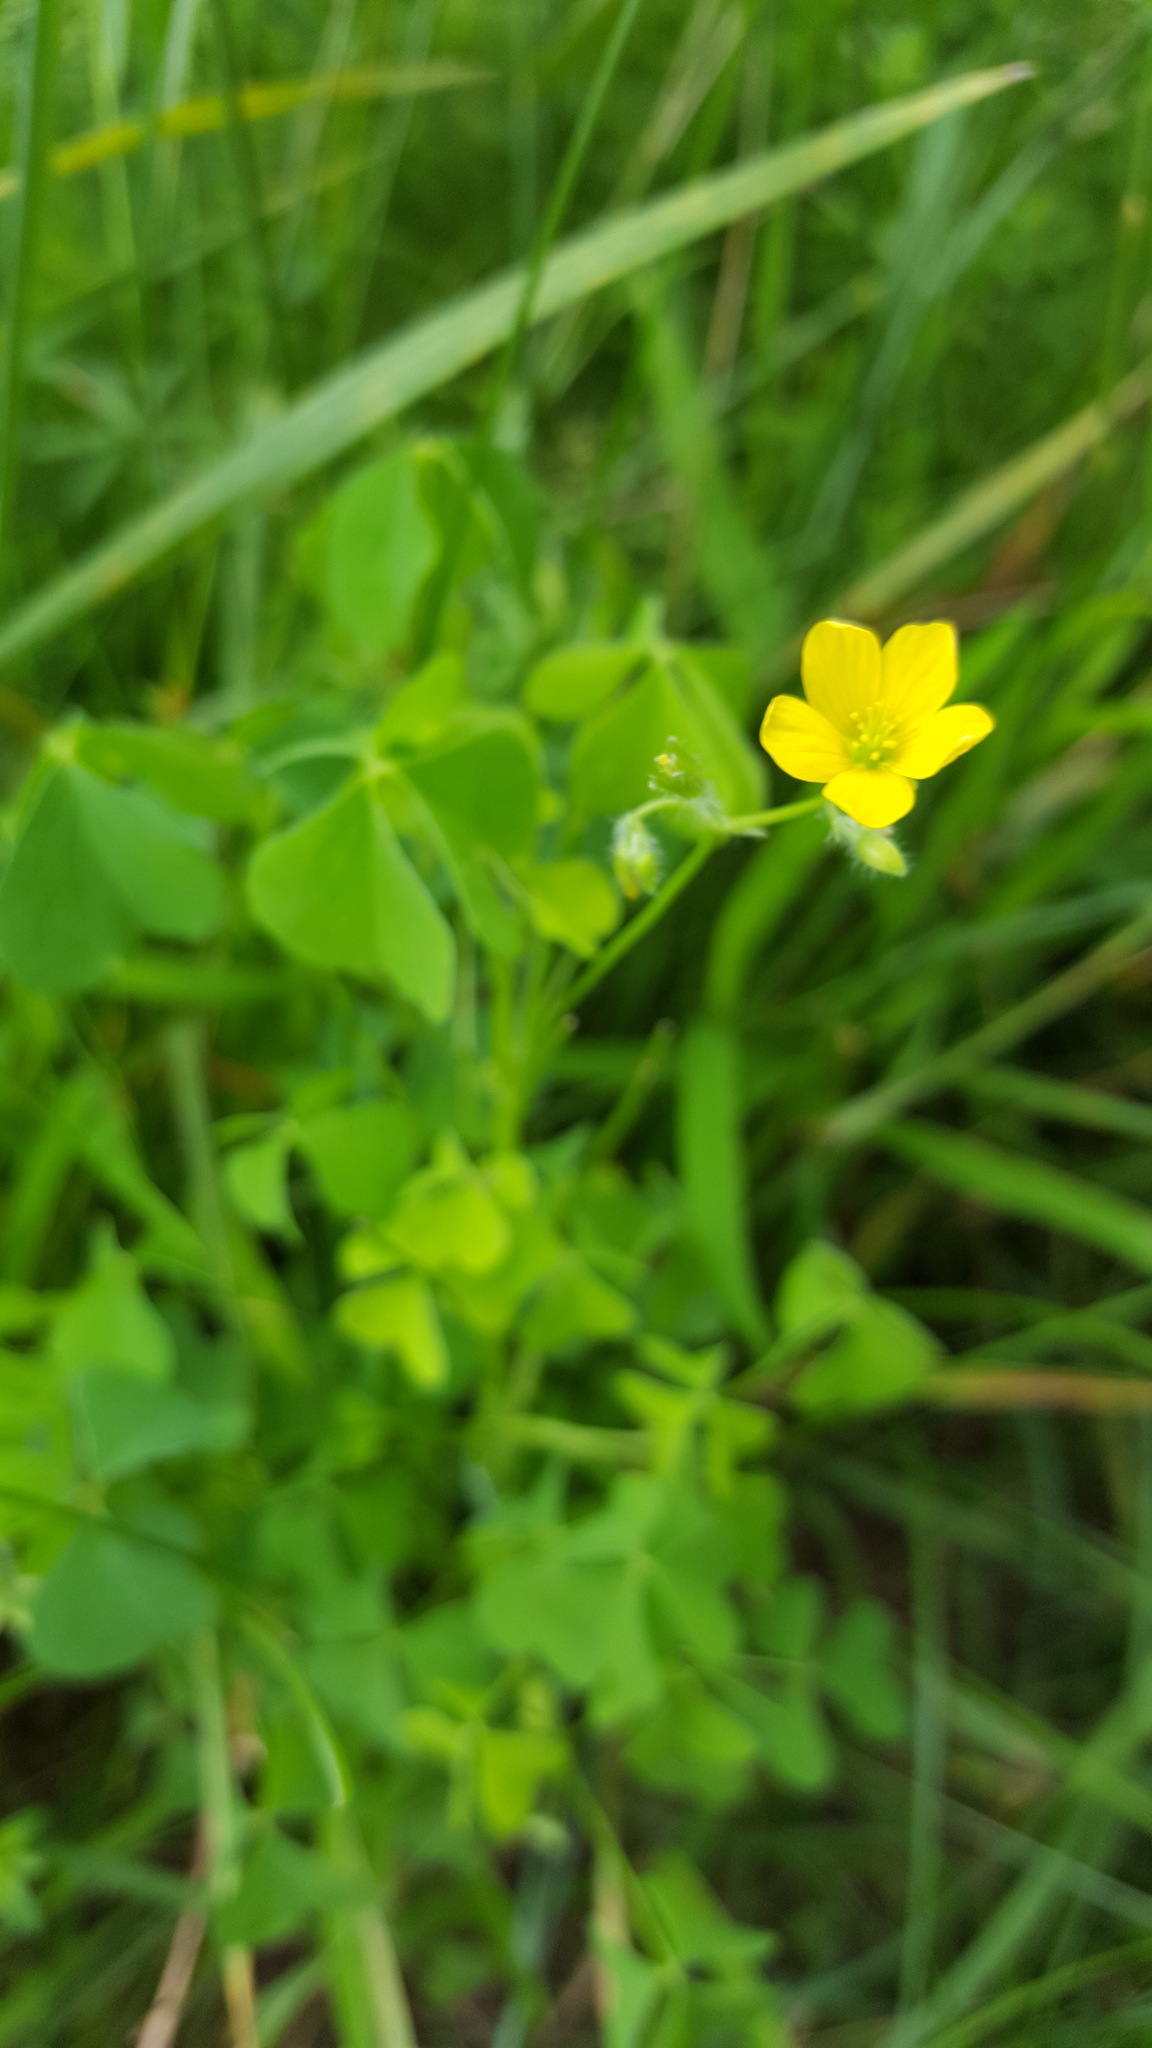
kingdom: Plantae
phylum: Tracheophyta
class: Magnoliopsida
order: Oxalidales
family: Oxalidaceae
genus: Oxalis
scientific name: Oxalis stricta
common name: Upright yellow-sorrel
